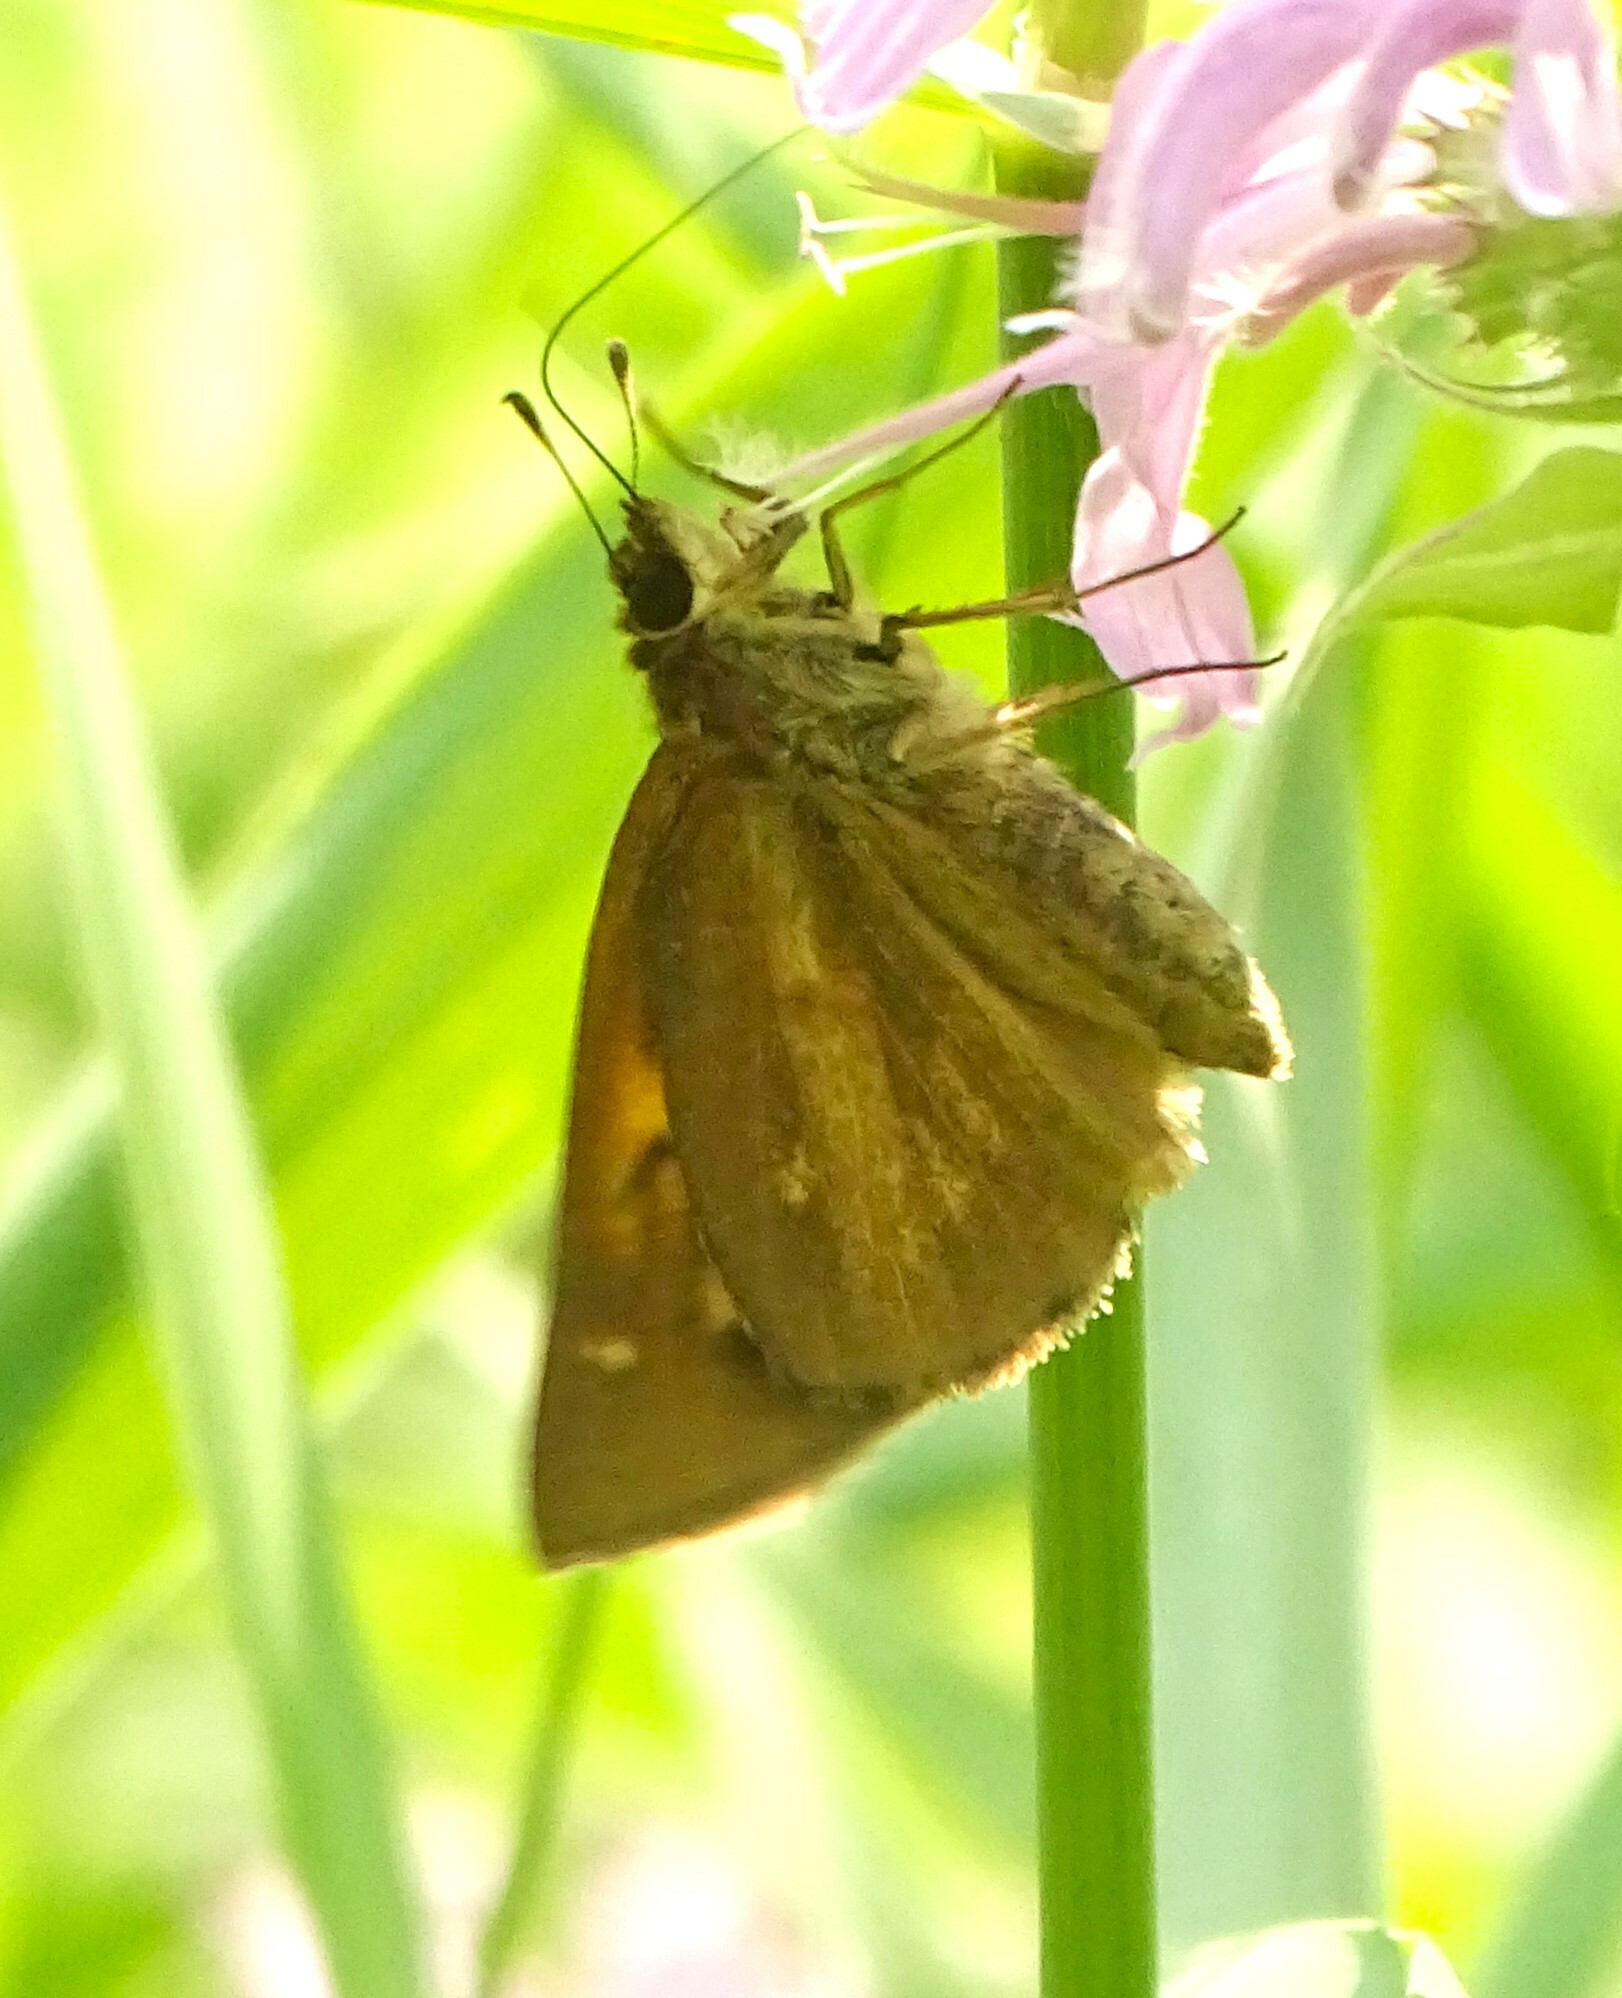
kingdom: Animalia
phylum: Arthropoda
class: Insecta
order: Lepidoptera
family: Hesperiidae
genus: Poanes
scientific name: Poanes viator
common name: Broad-winged skipper
